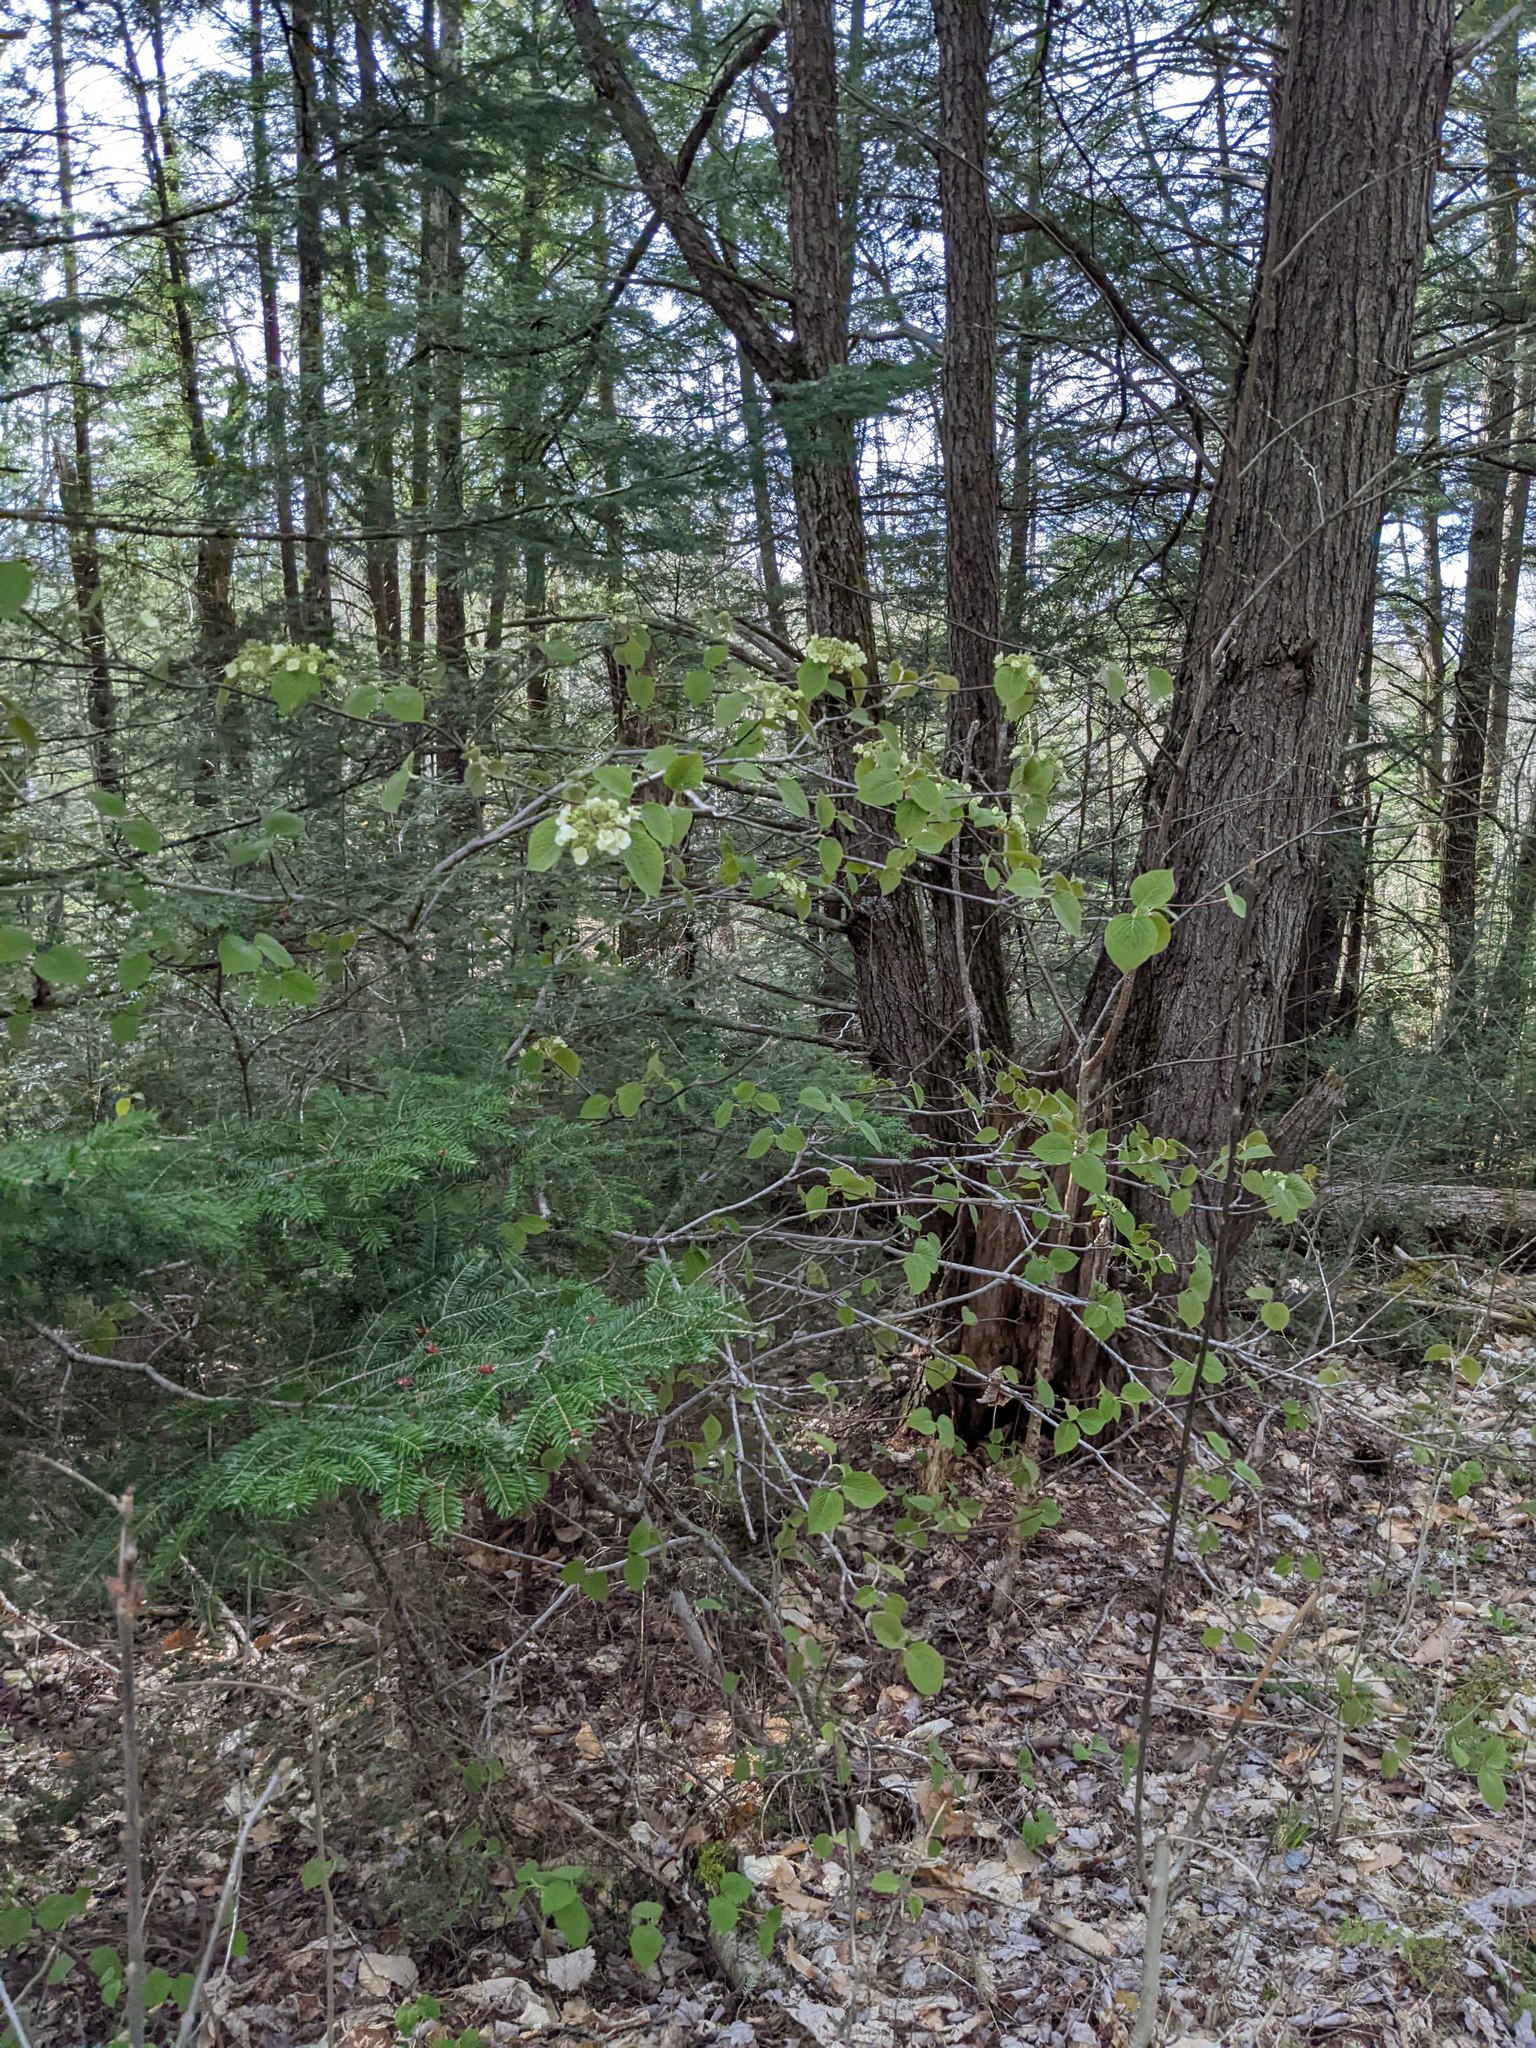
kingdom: Plantae
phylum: Tracheophyta
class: Magnoliopsida
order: Dipsacales
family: Viburnaceae
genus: Viburnum
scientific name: Viburnum lantanoides
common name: Hobblebush
